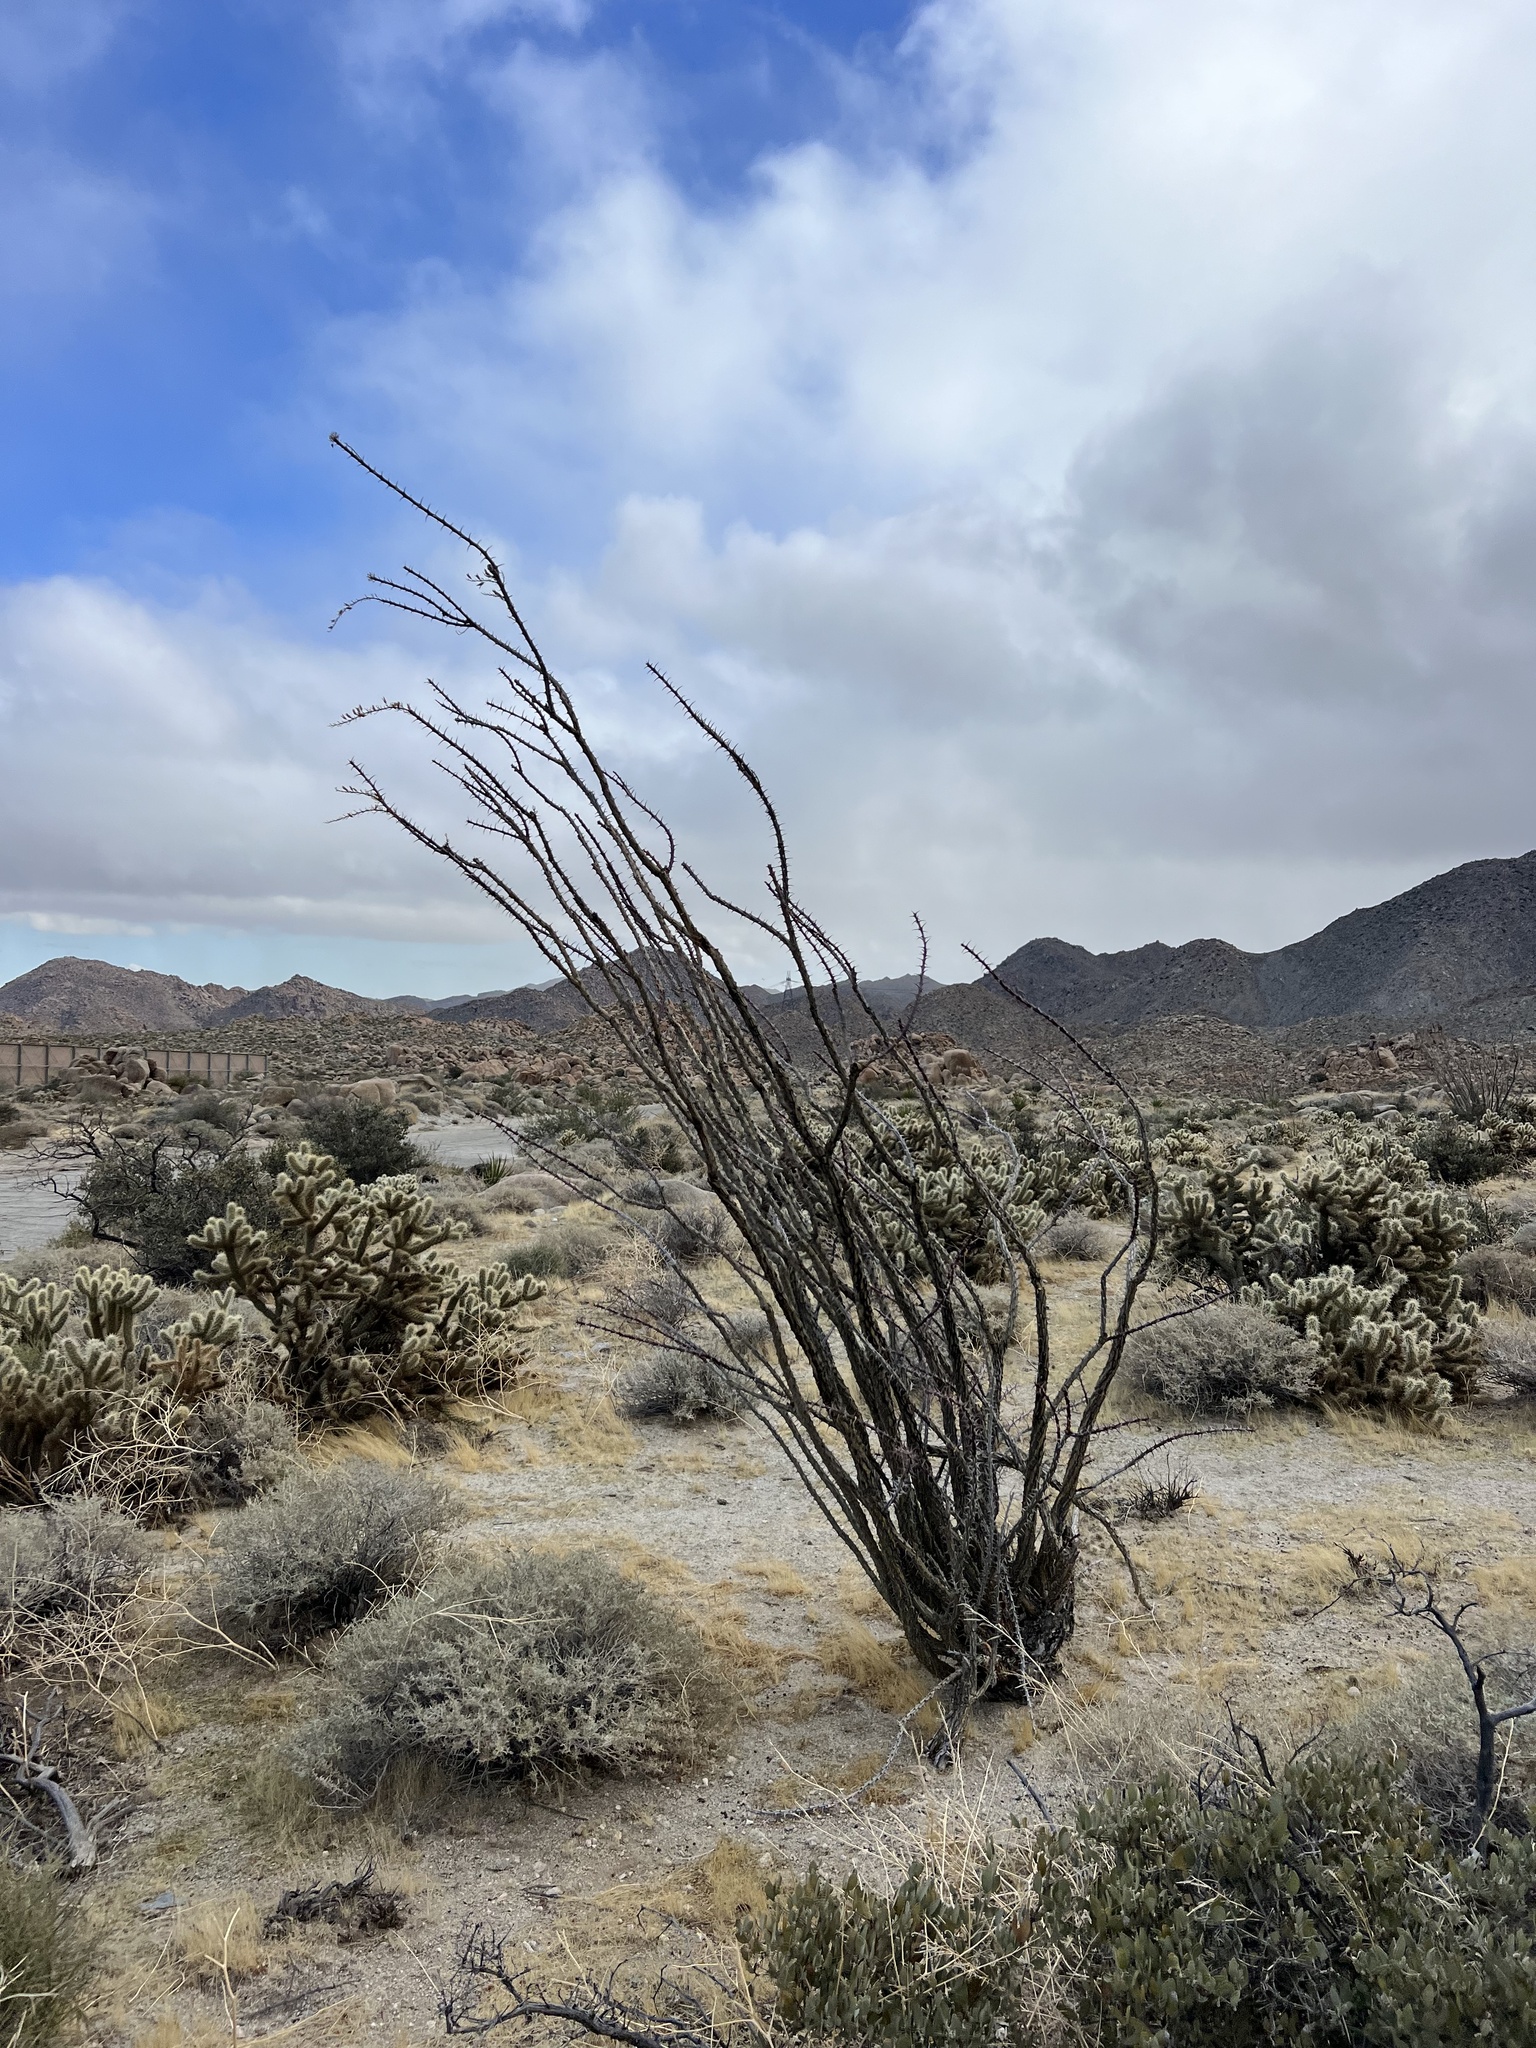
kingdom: Plantae
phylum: Tracheophyta
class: Magnoliopsida
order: Ericales
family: Fouquieriaceae
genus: Fouquieria
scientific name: Fouquieria splendens
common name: Vine-cactus
